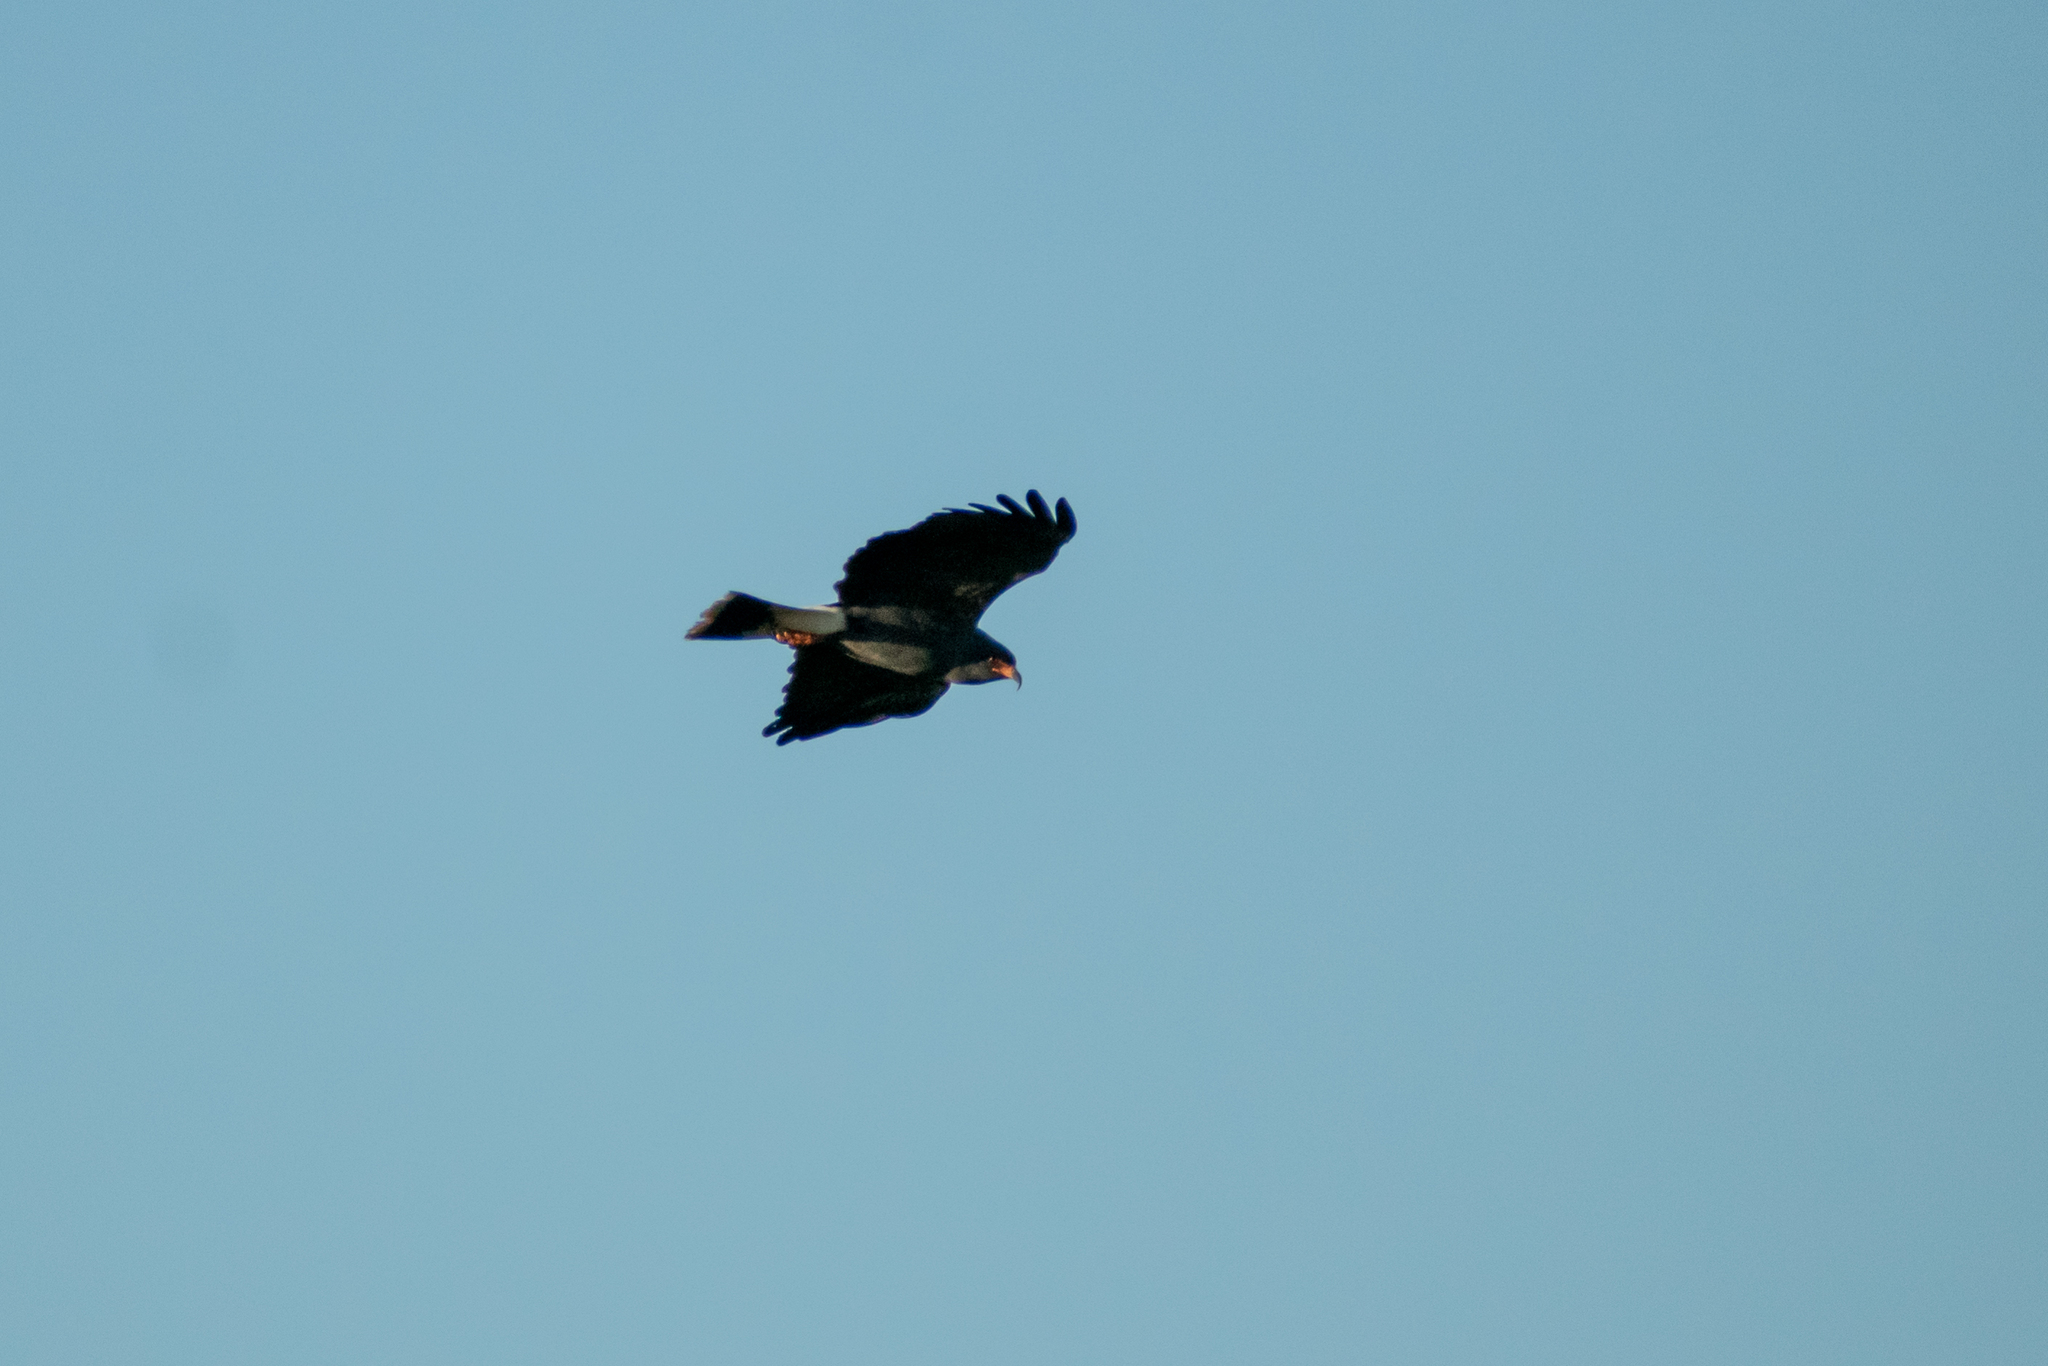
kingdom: Animalia
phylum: Chordata
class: Aves
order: Accipitriformes
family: Accipitridae
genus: Rostrhamus
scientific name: Rostrhamus sociabilis
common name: Snail kite
